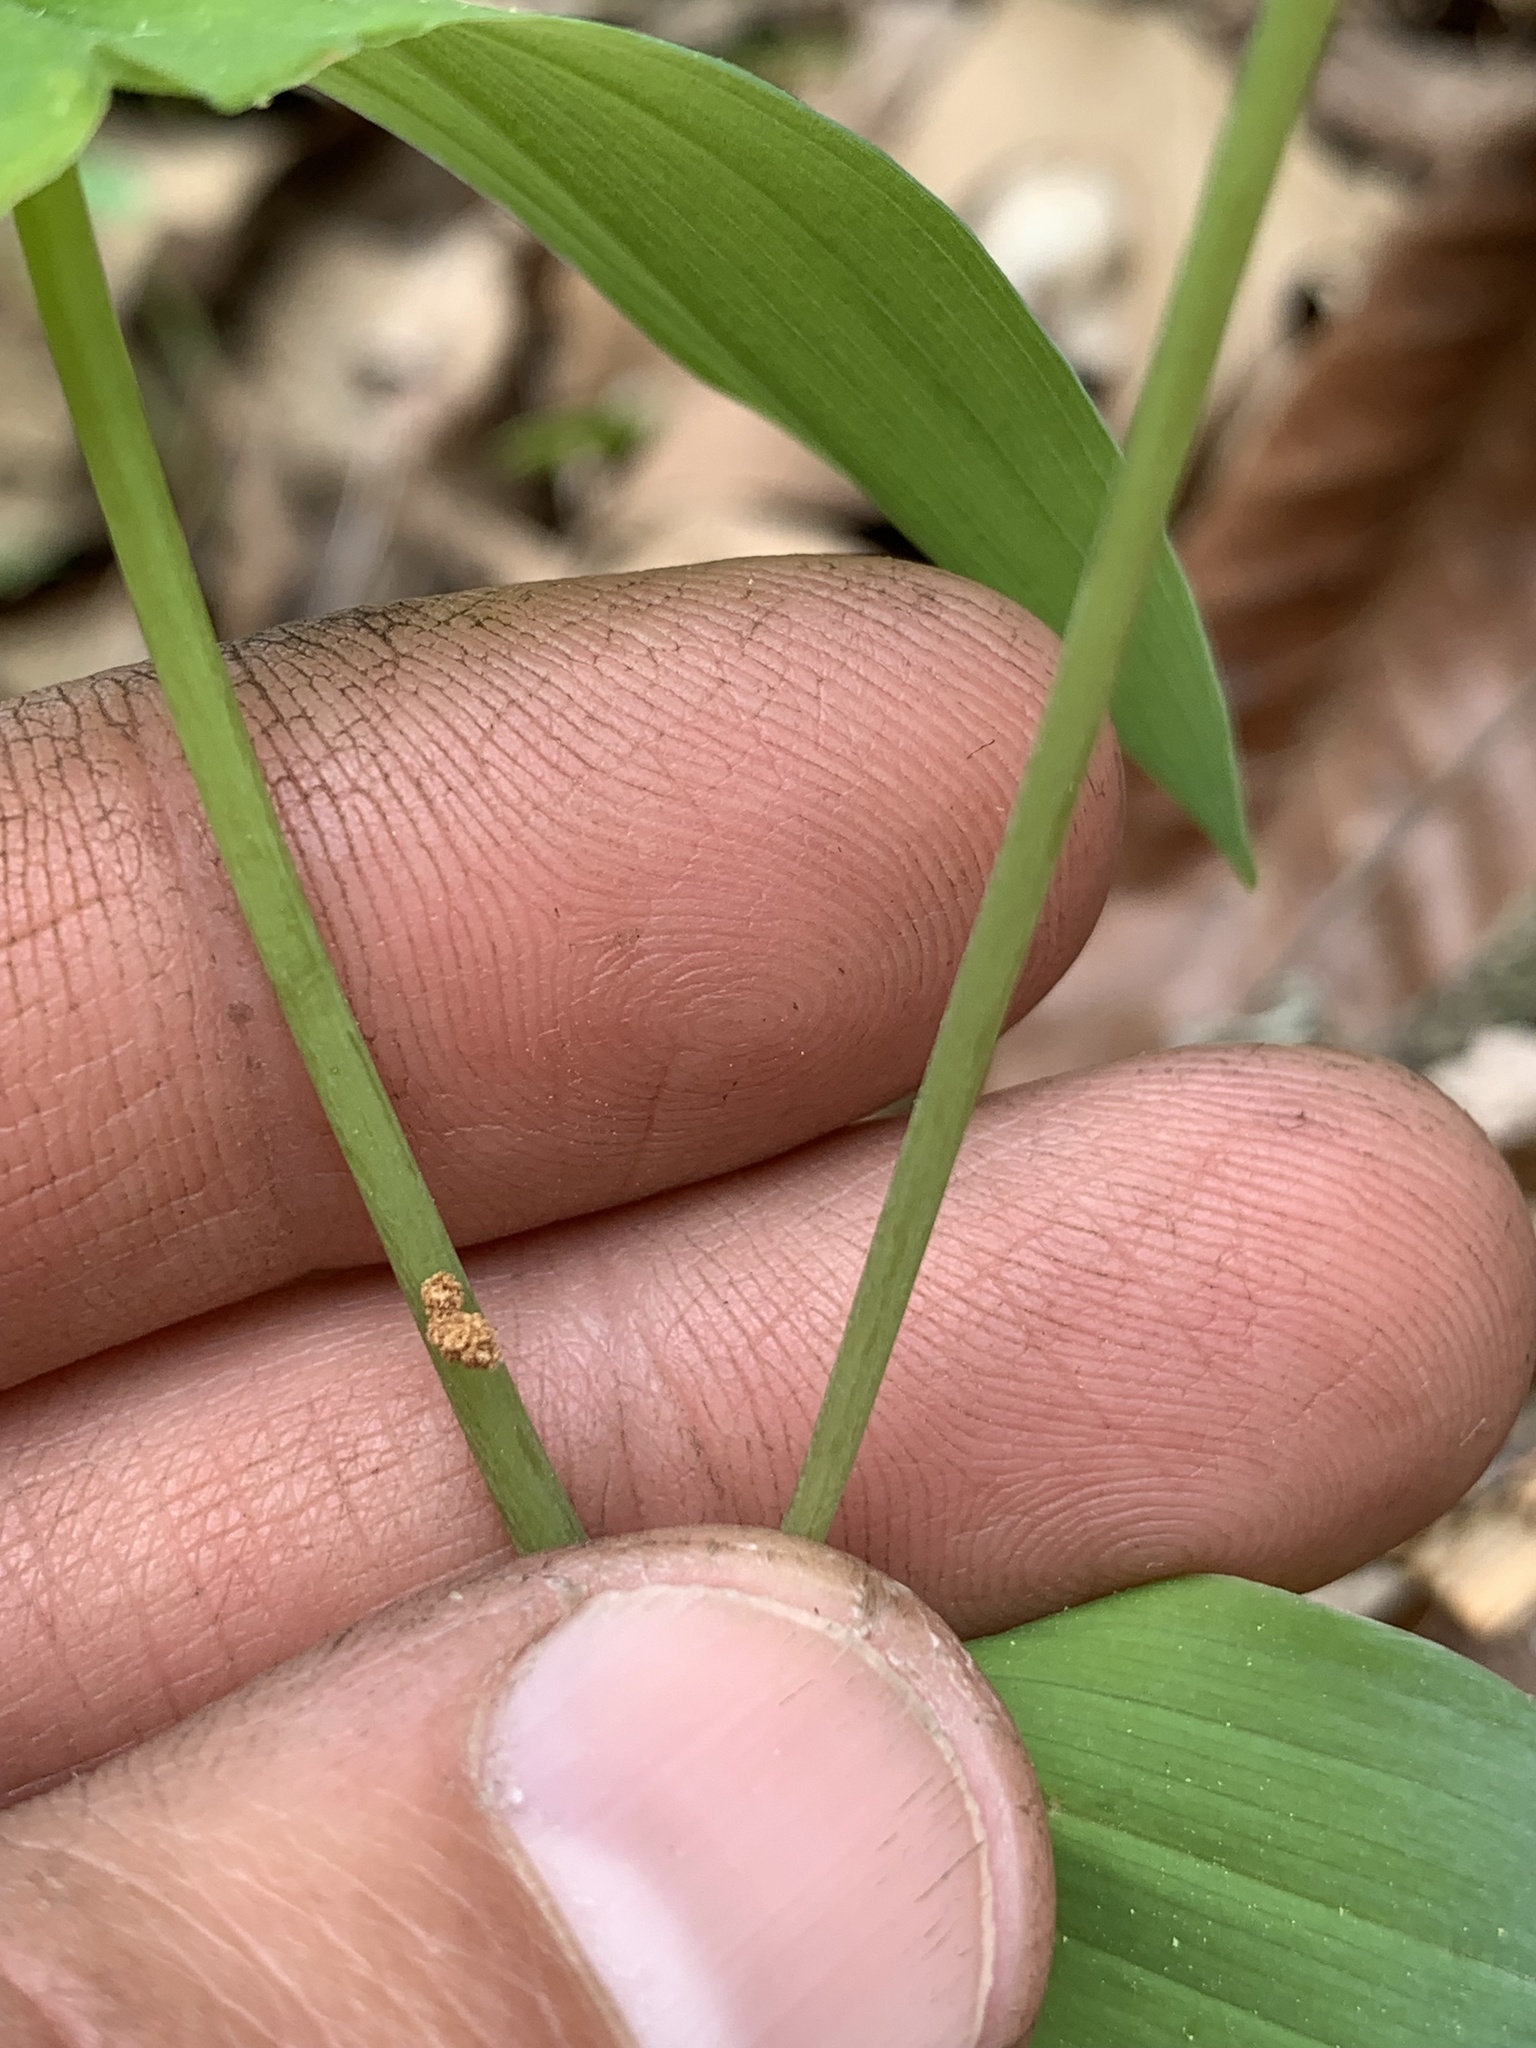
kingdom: Plantae
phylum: Tracheophyta
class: Liliopsida
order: Liliales
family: Colchicaceae
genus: Uvularia
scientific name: Uvularia grandiflora
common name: Bellwort
